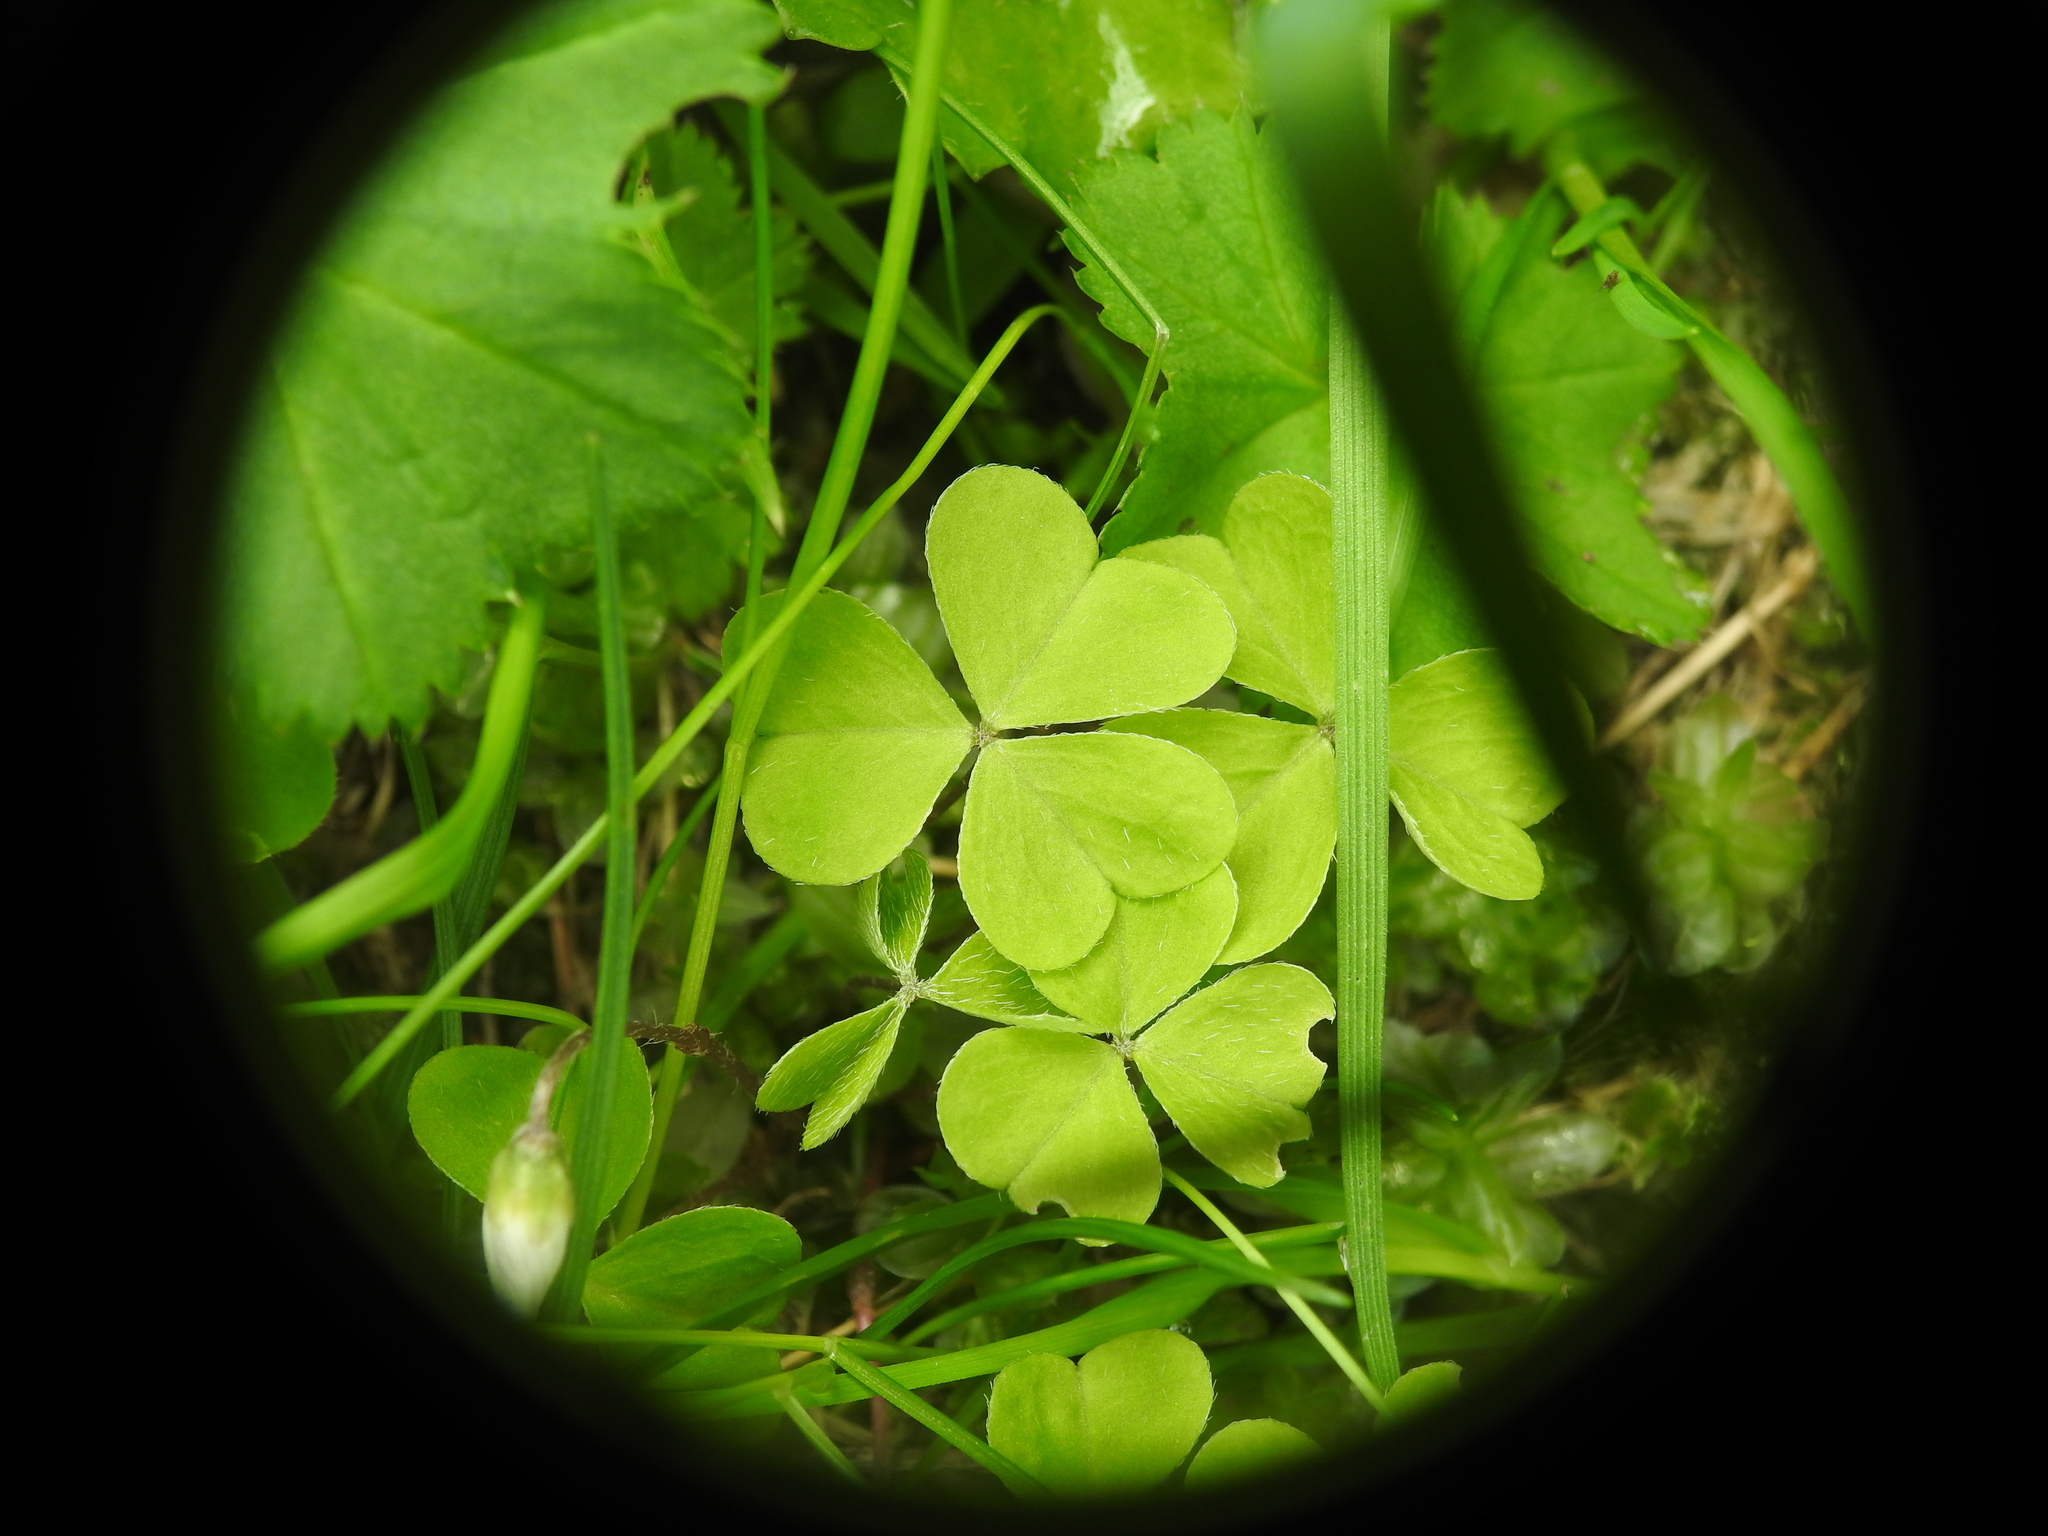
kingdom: Plantae
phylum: Tracheophyta
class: Magnoliopsida
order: Oxalidales
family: Oxalidaceae
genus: Oxalis
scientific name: Oxalis acetosella
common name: Wood-sorrel
